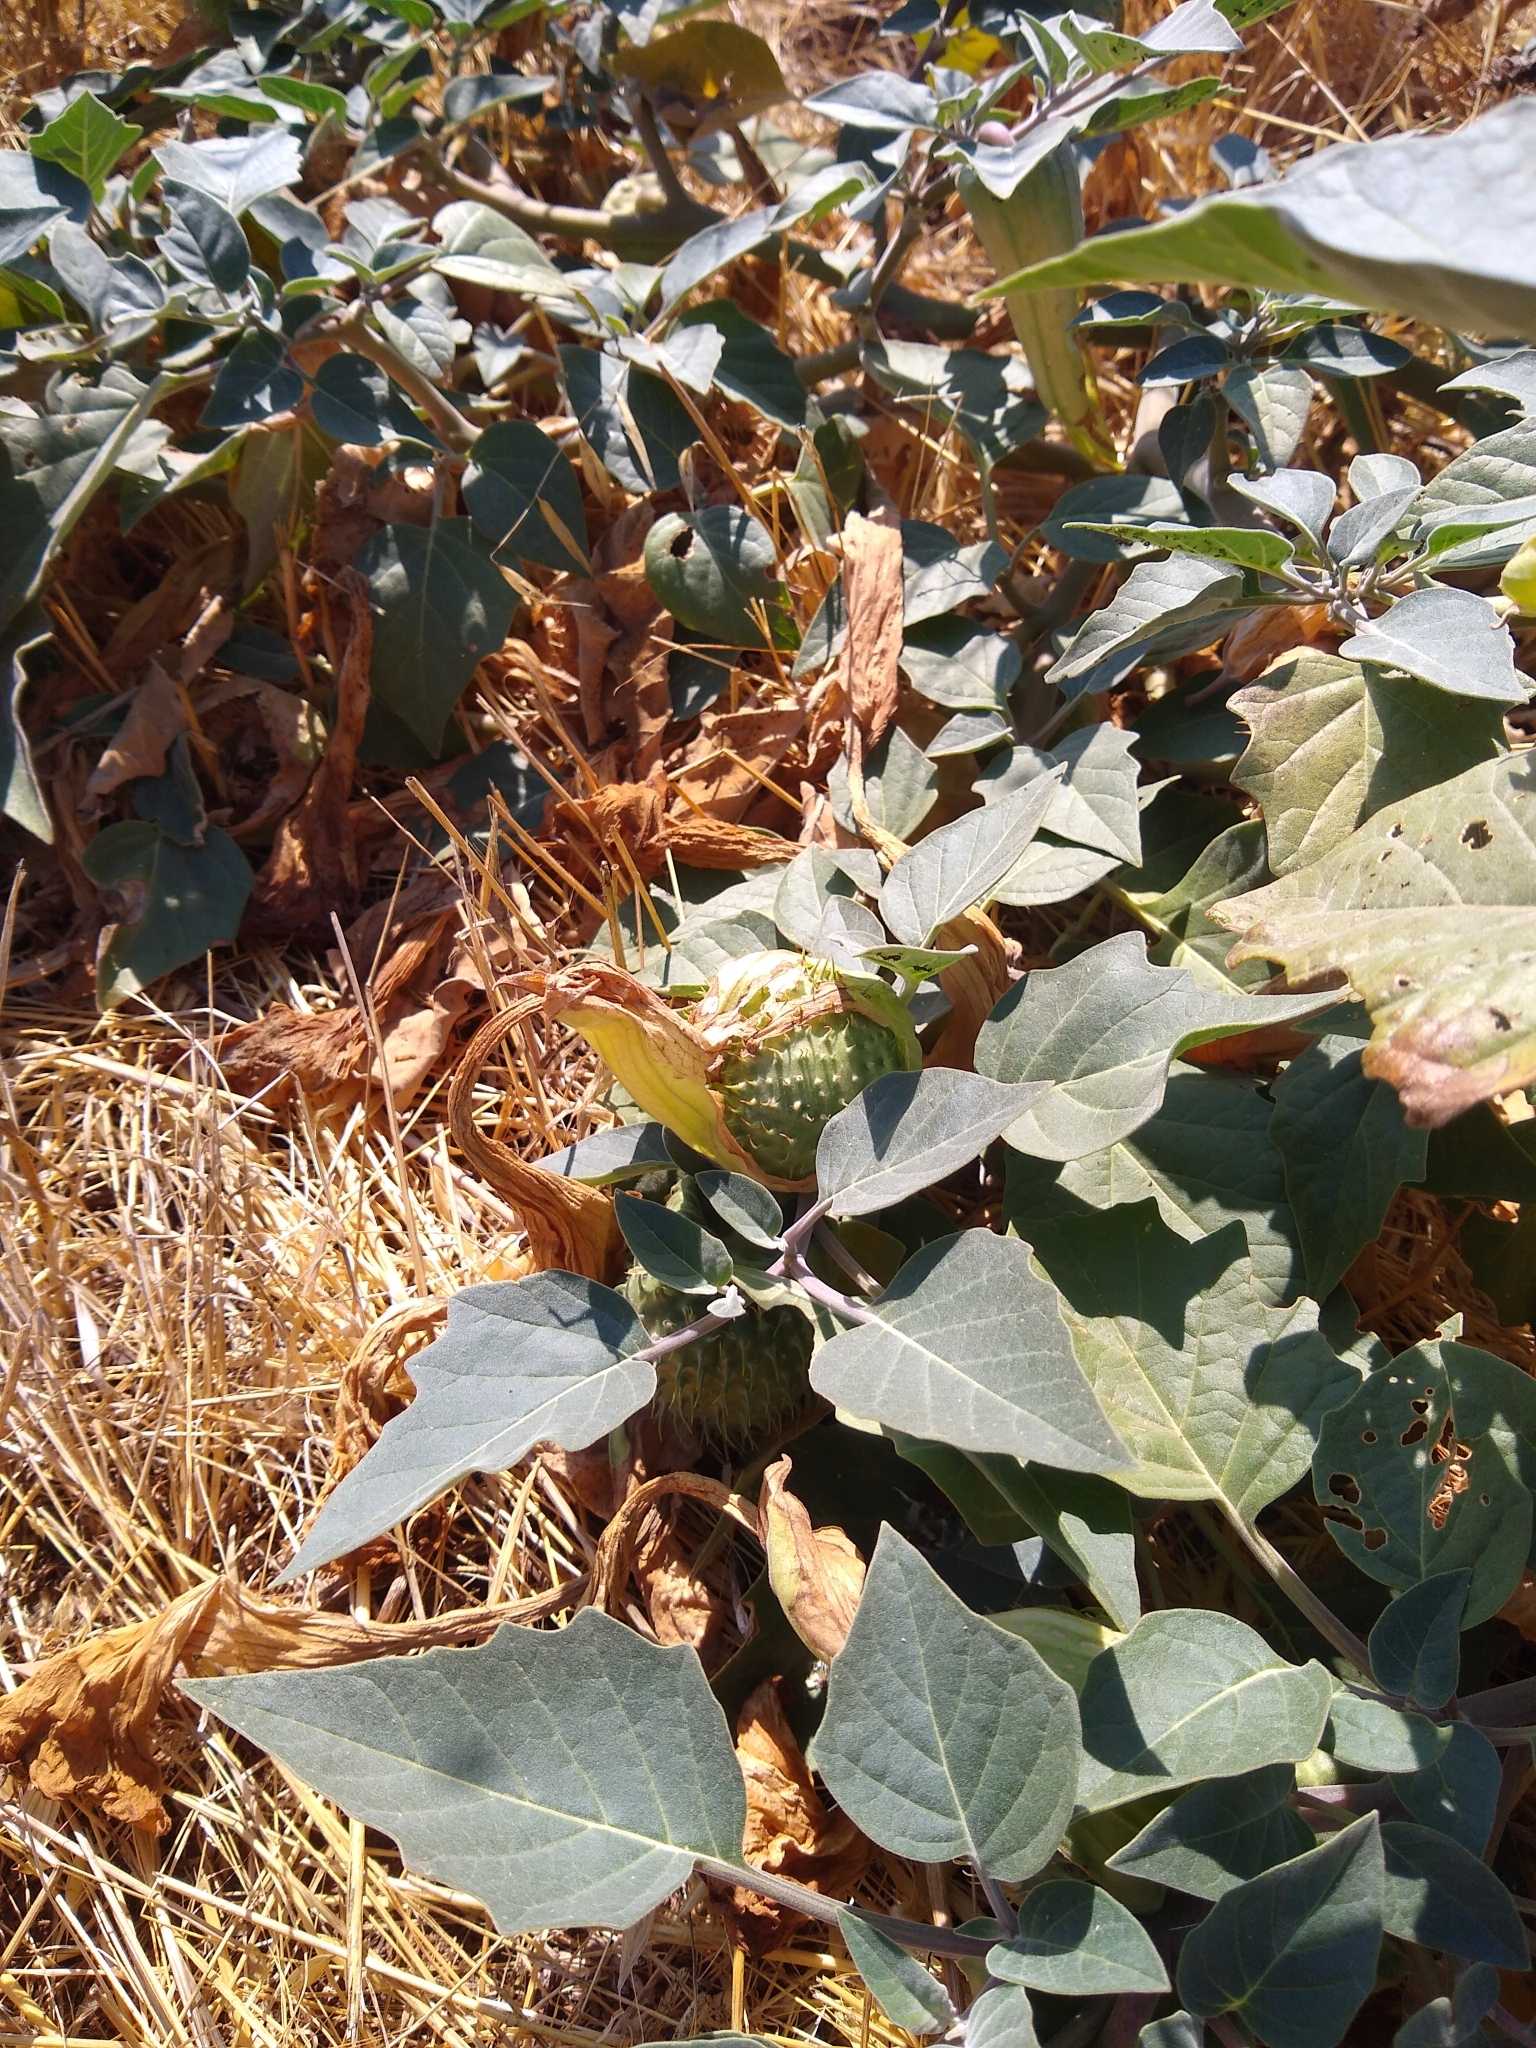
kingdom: Plantae
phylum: Tracheophyta
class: Magnoliopsida
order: Solanales
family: Solanaceae
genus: Datura
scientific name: Datura wrightii
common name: Sacred thorn-apple
